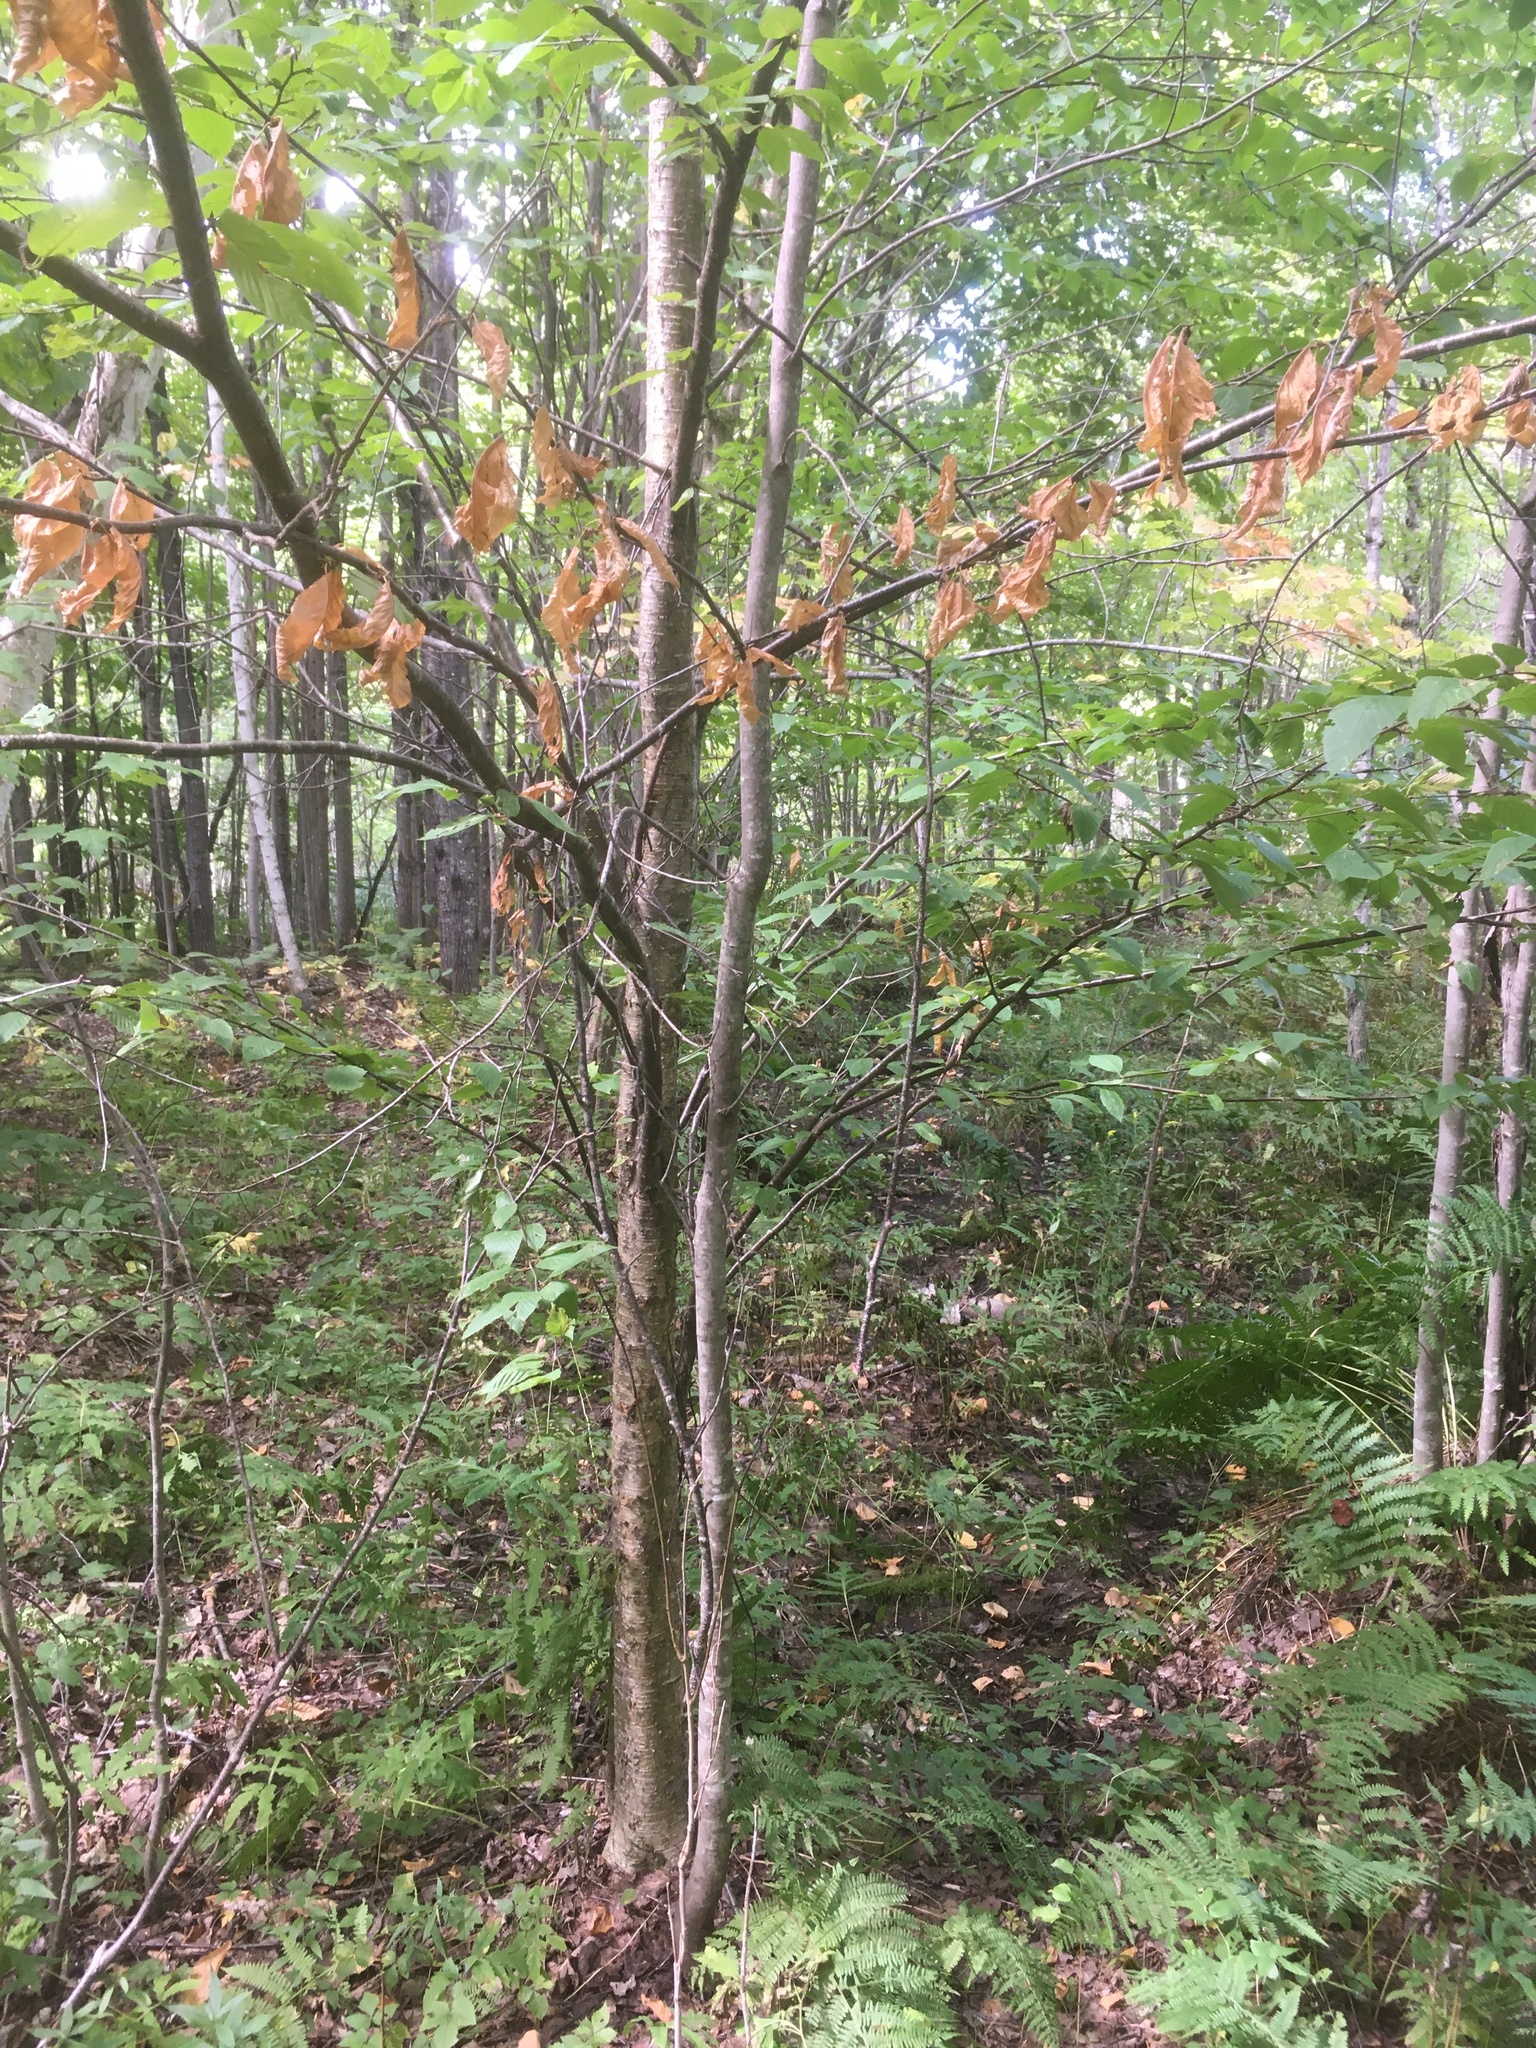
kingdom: Plantae
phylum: Tracheophyta
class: Magnoliopsida
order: Fagales
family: Betulaceae
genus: Betula
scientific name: Betula alleghaniensis
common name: Yellow birch
